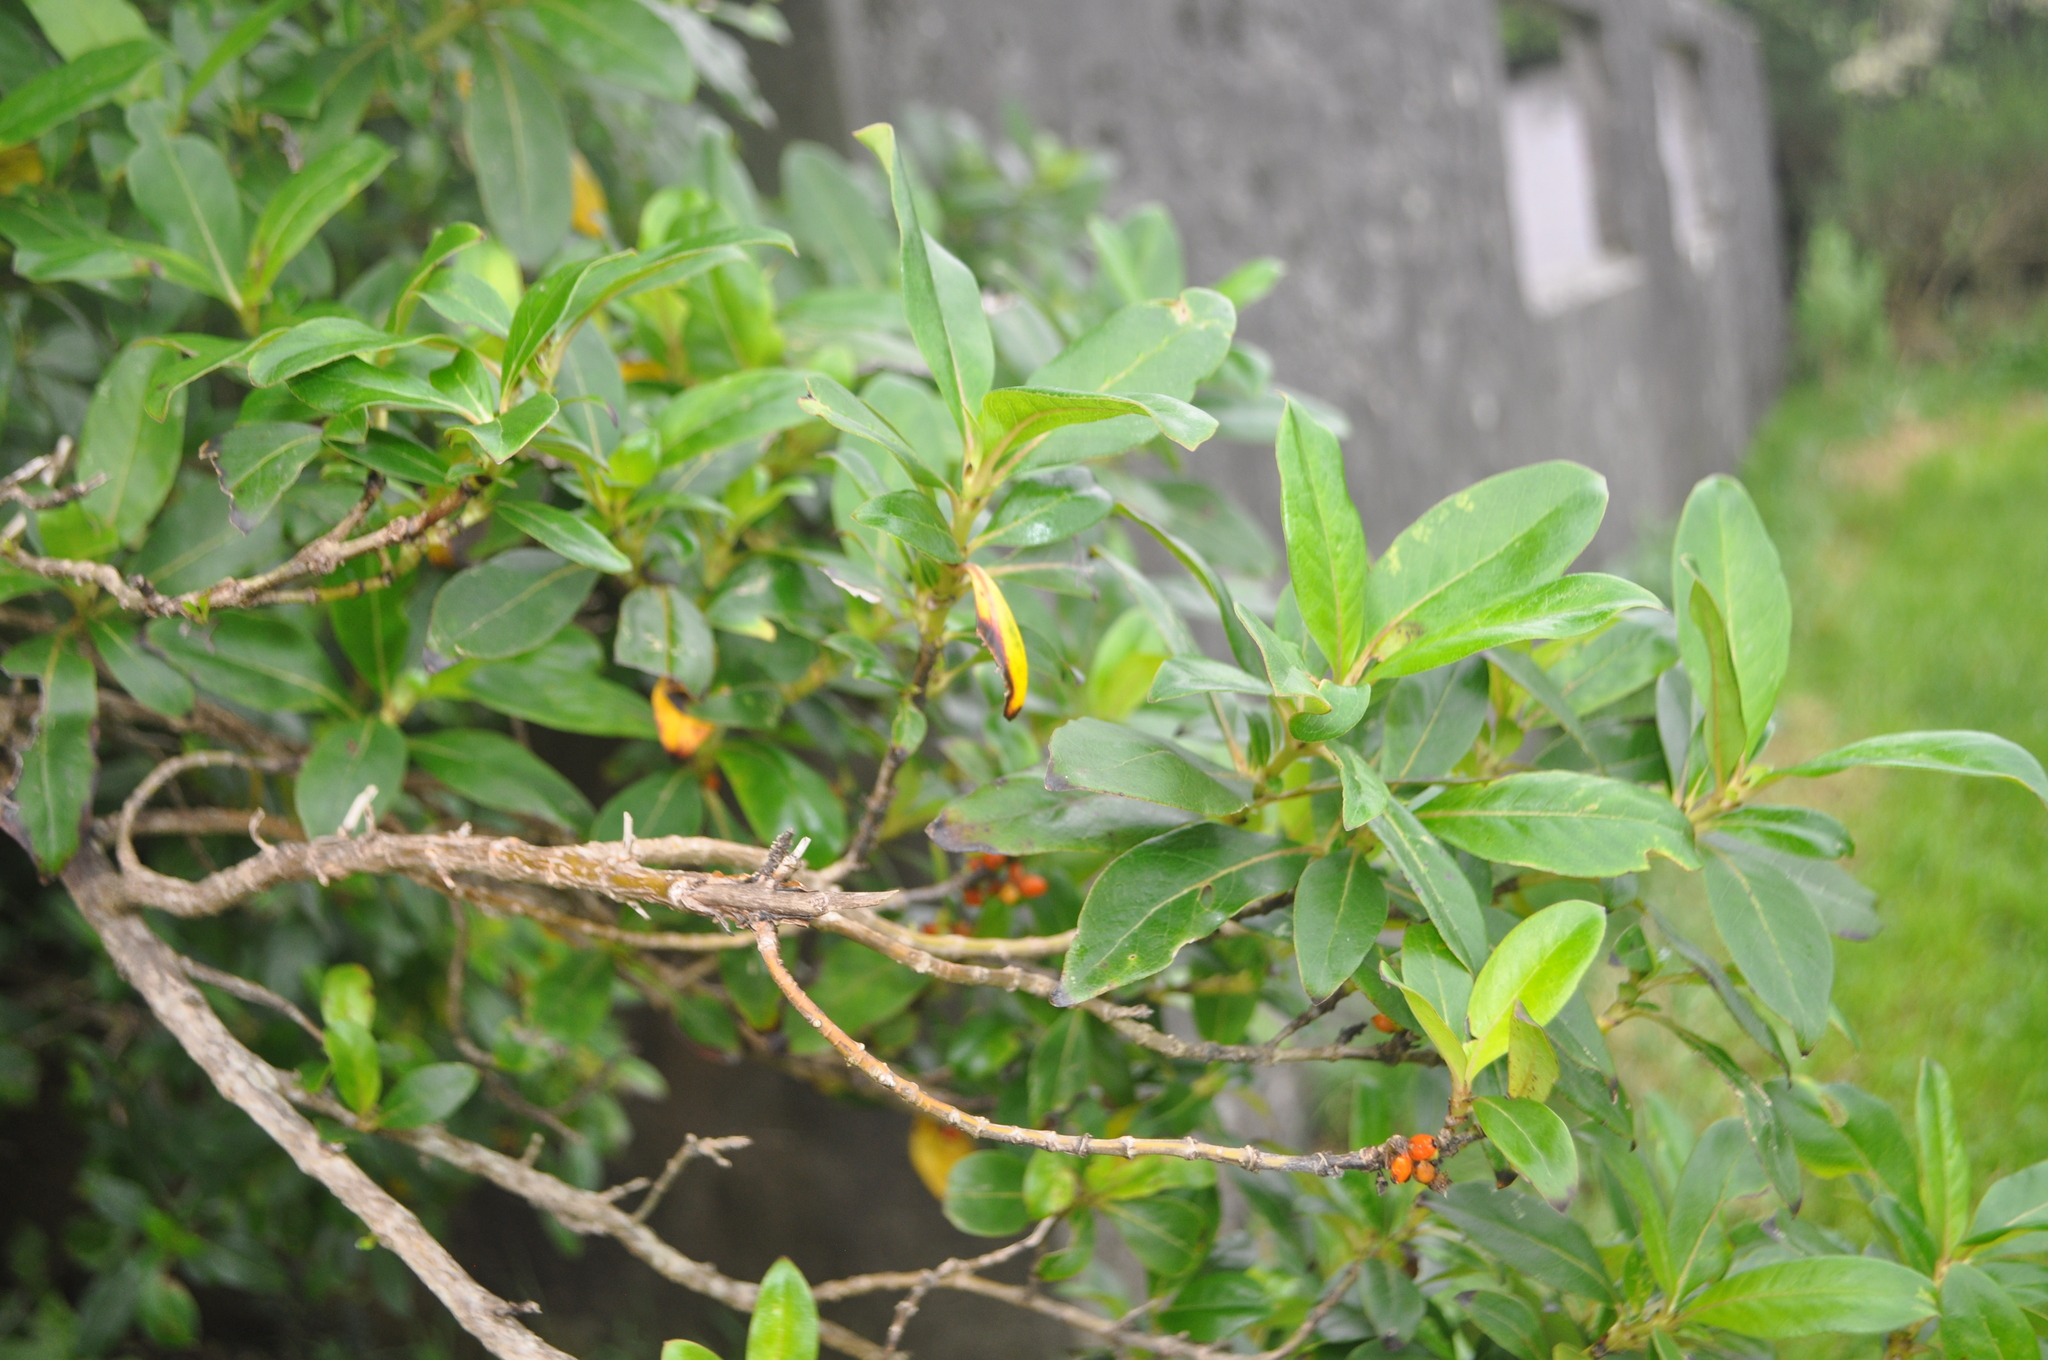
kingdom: Plantae
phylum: Tracheophyta
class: Magnoliopsida
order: Gentianales
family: Rubiaceae
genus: Coprosma
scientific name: Coprosma robusta
